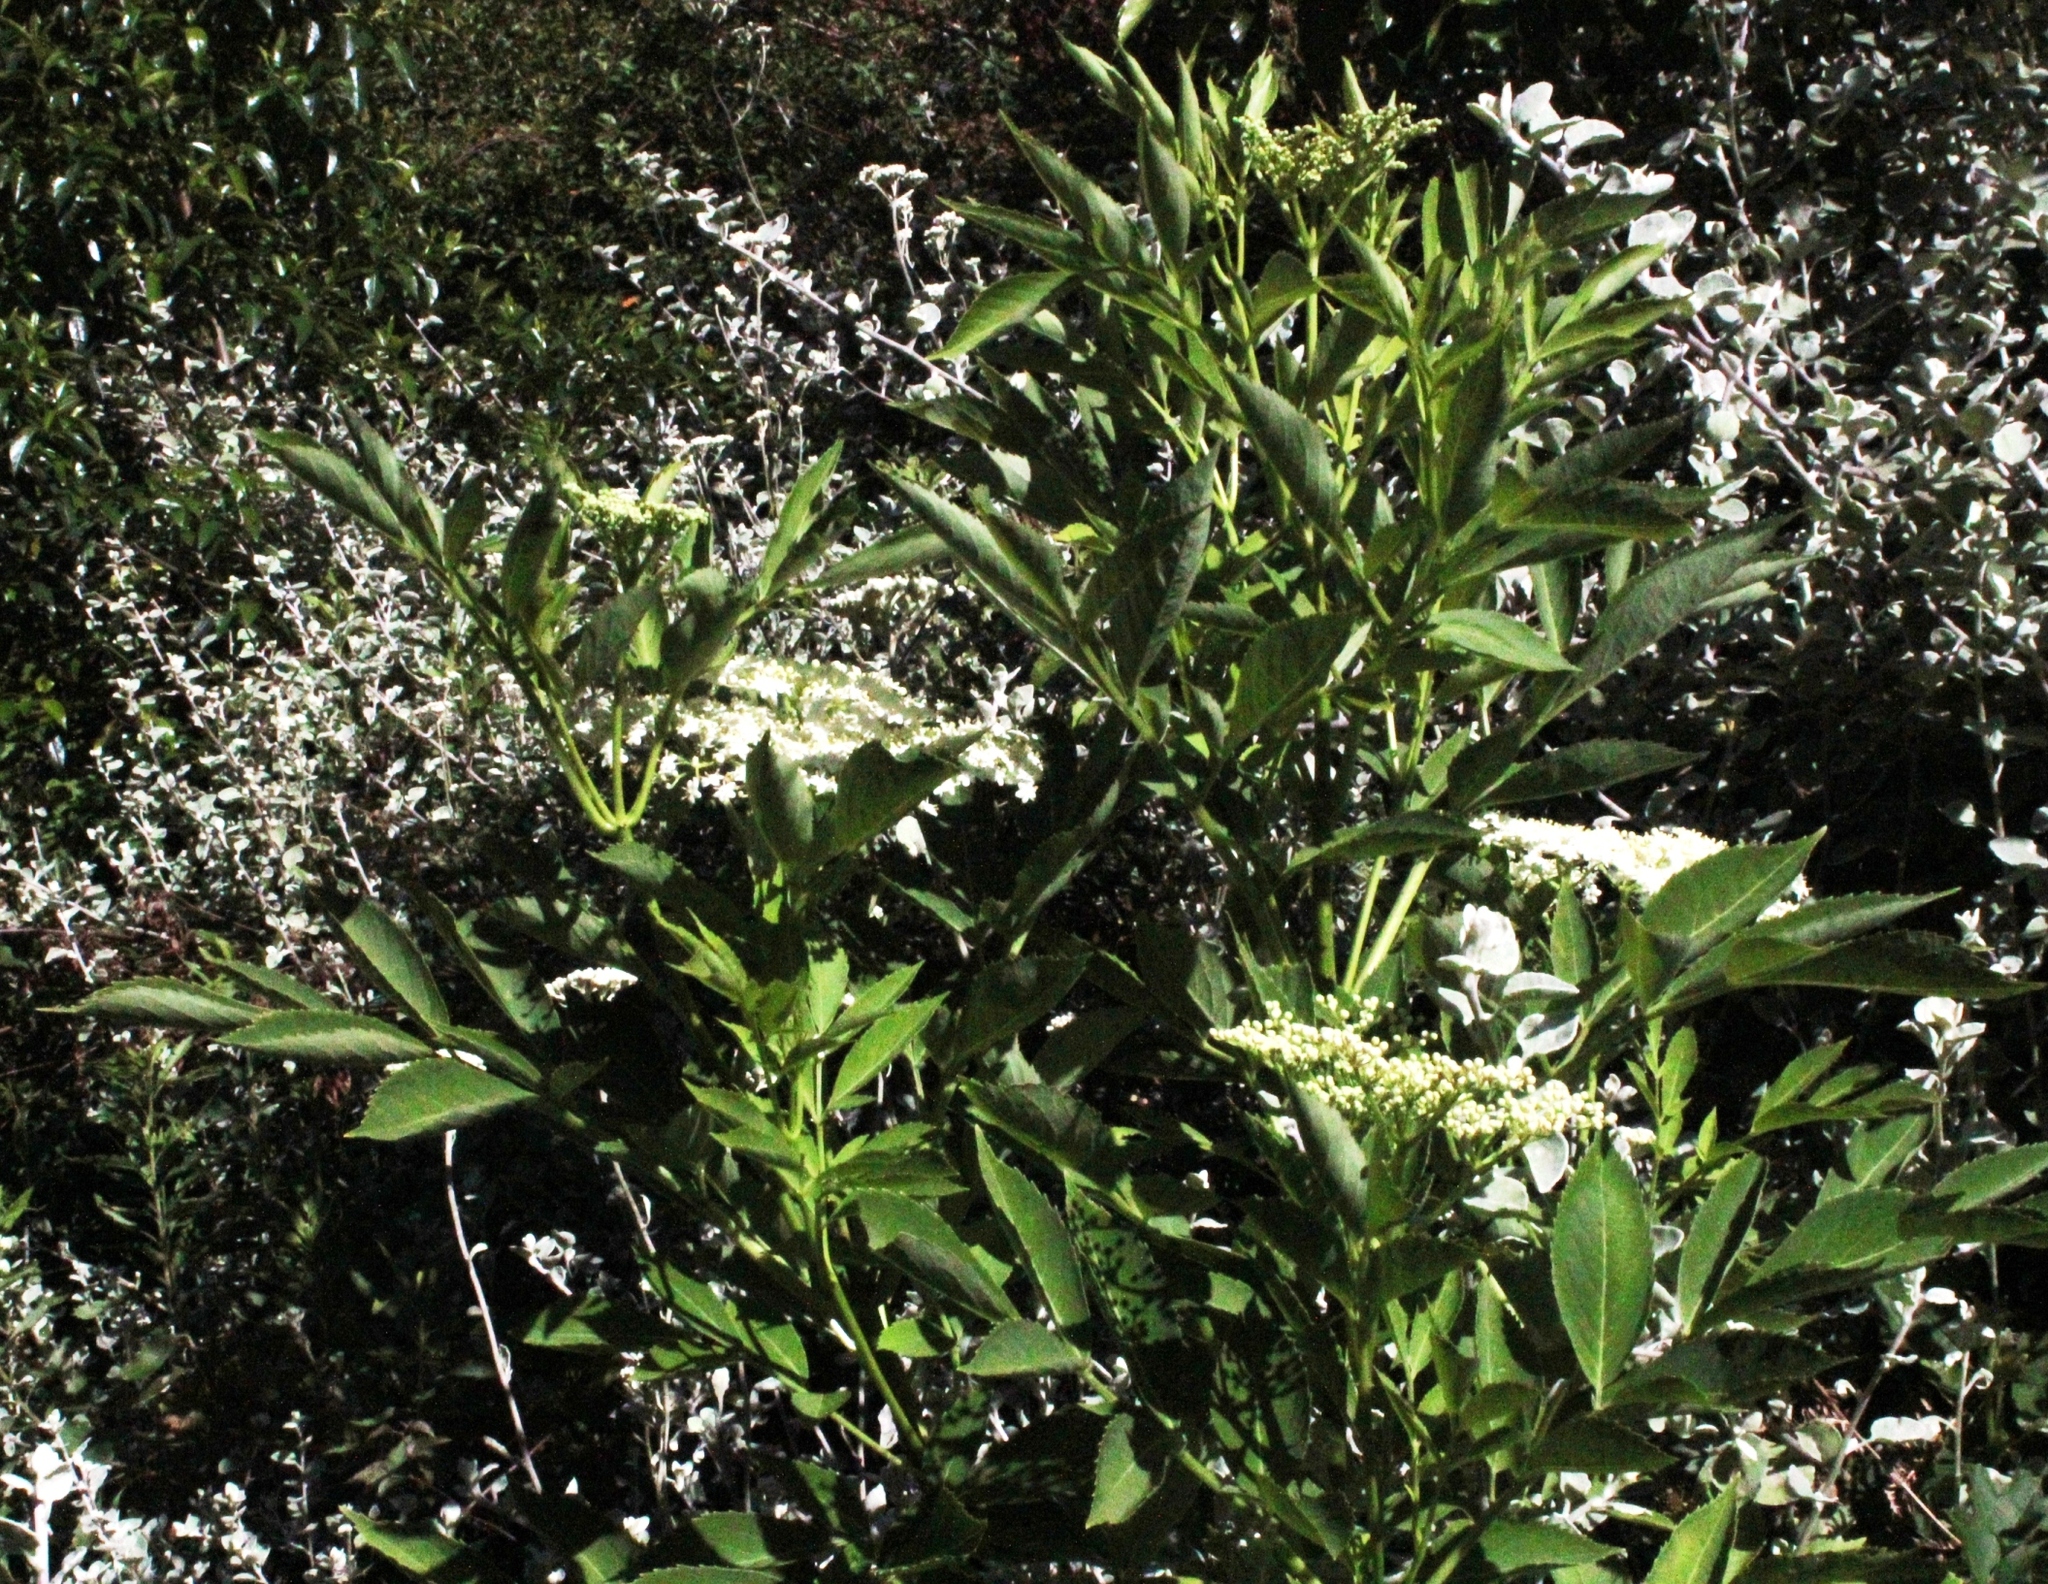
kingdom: Plantae
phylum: Tracheophyta
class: Magnoliopsida
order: Dipsacales
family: Viburnaceae
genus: Sambucus
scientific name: Sambucus nigra
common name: Elder
